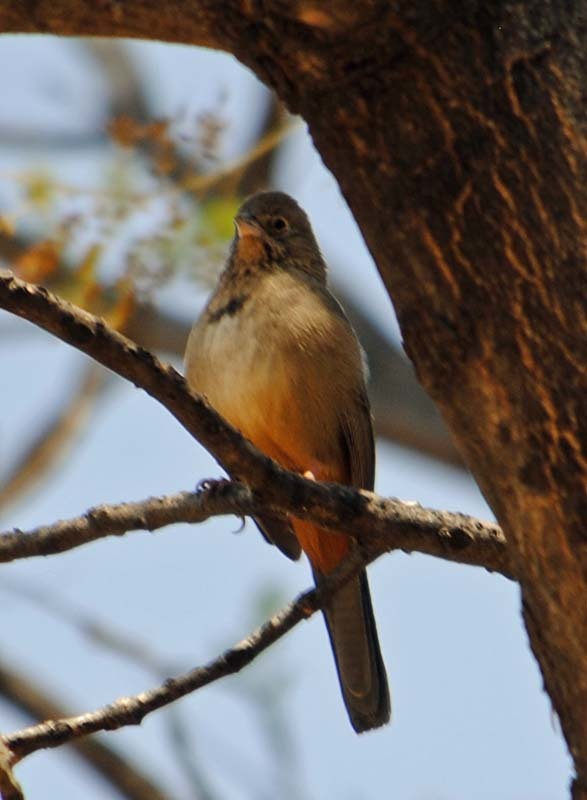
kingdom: Animalia
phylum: Chordata
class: Aves
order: Passeriformes
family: Passerellidae
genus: Melozone
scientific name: Melozone fusca
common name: Canyon towhee
